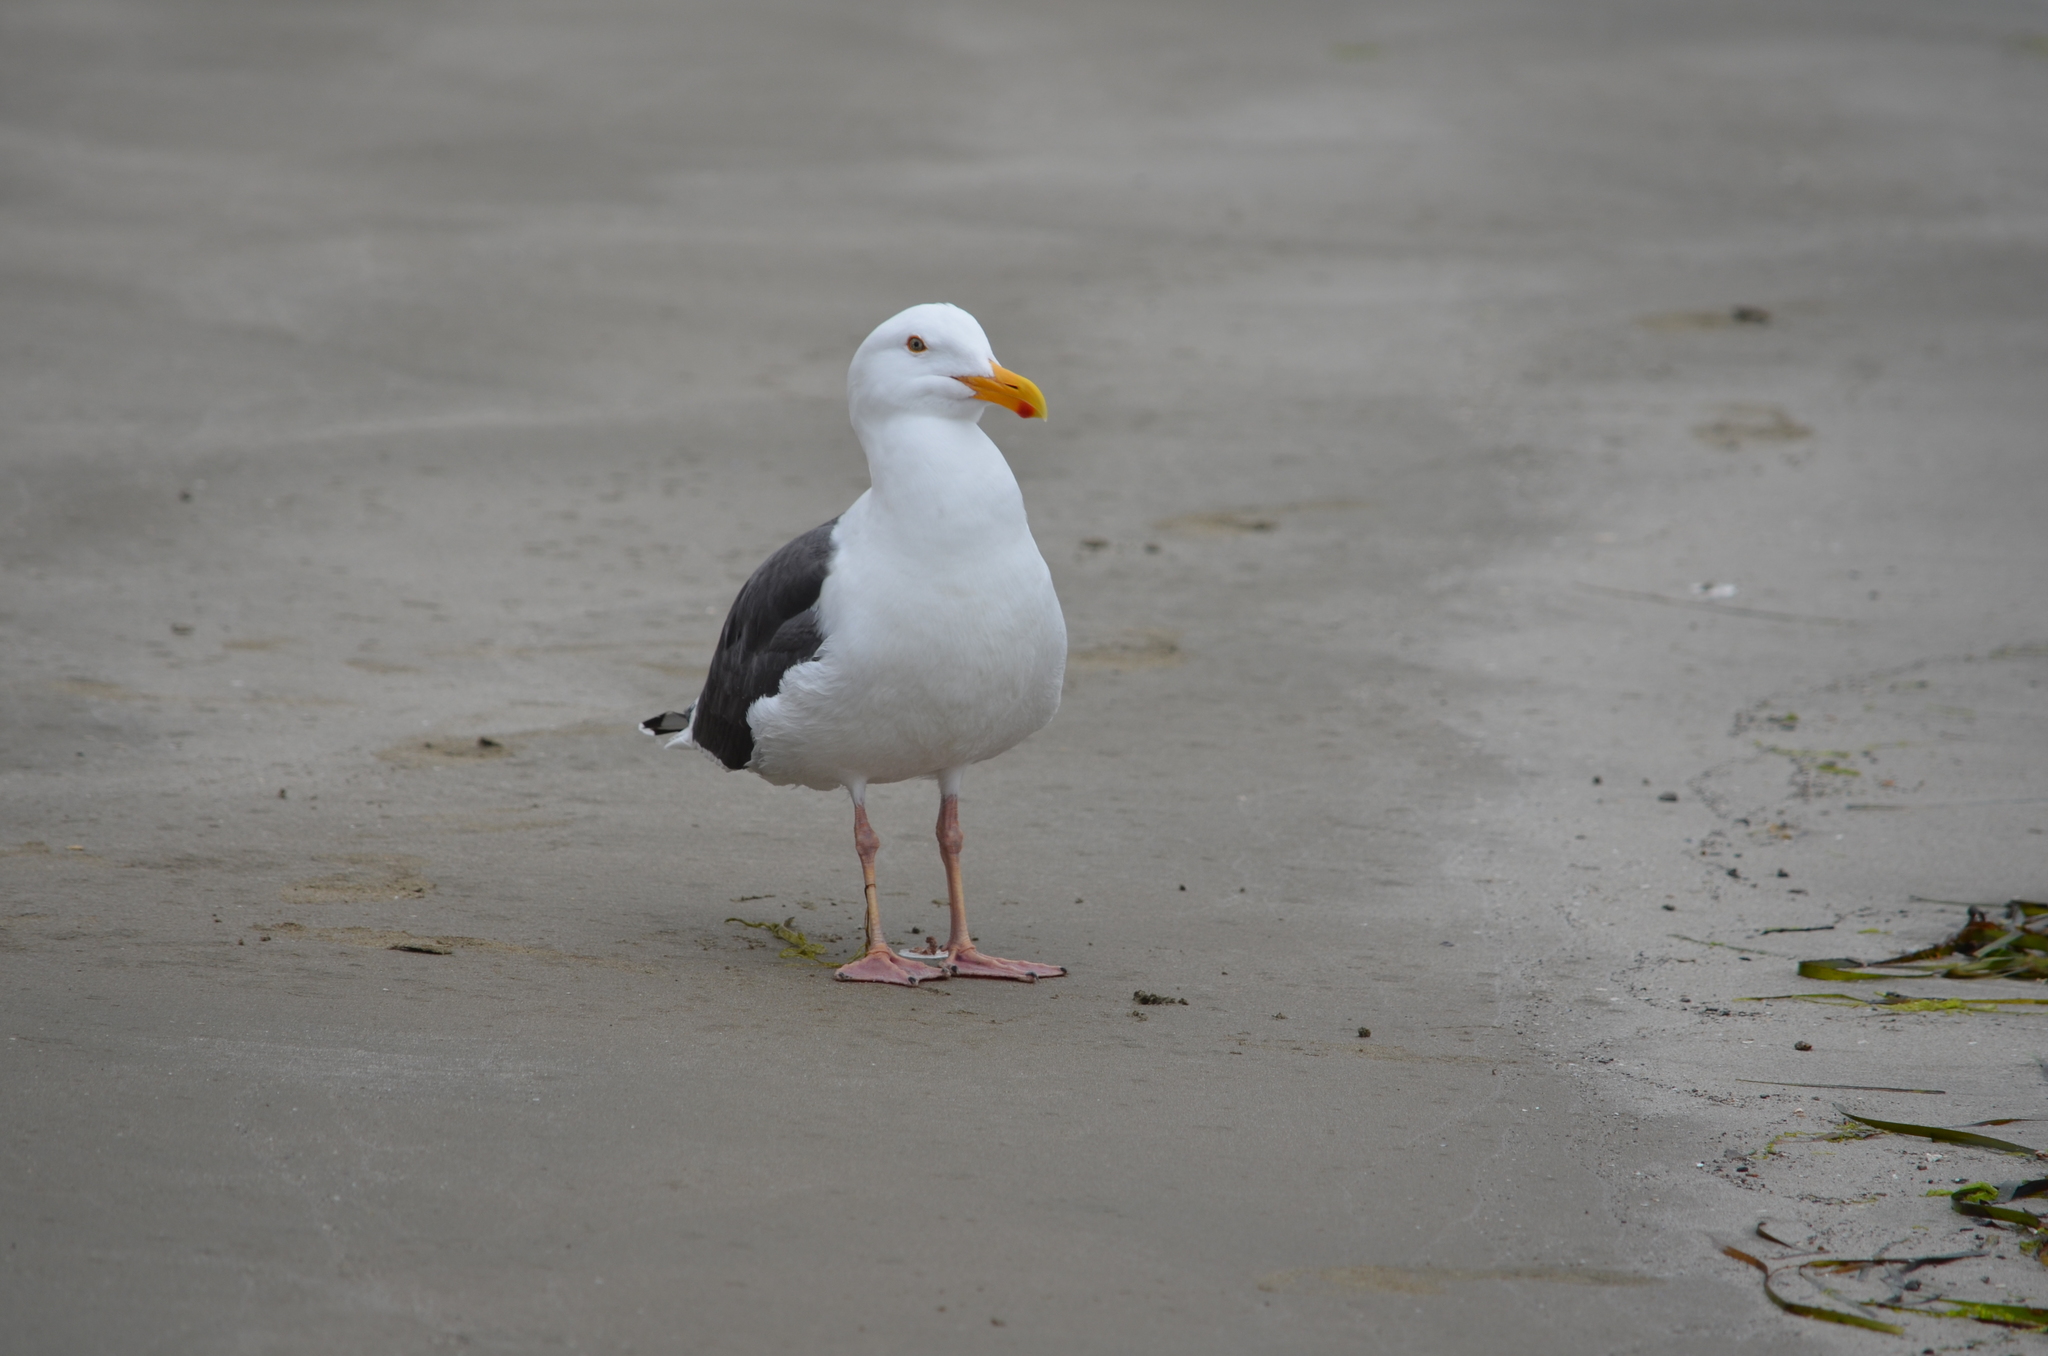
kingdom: Animalia
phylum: Chordata
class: Aves
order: Charadriiformes
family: Laridae
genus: Larus
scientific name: Larus occidentalis
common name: Western gull
